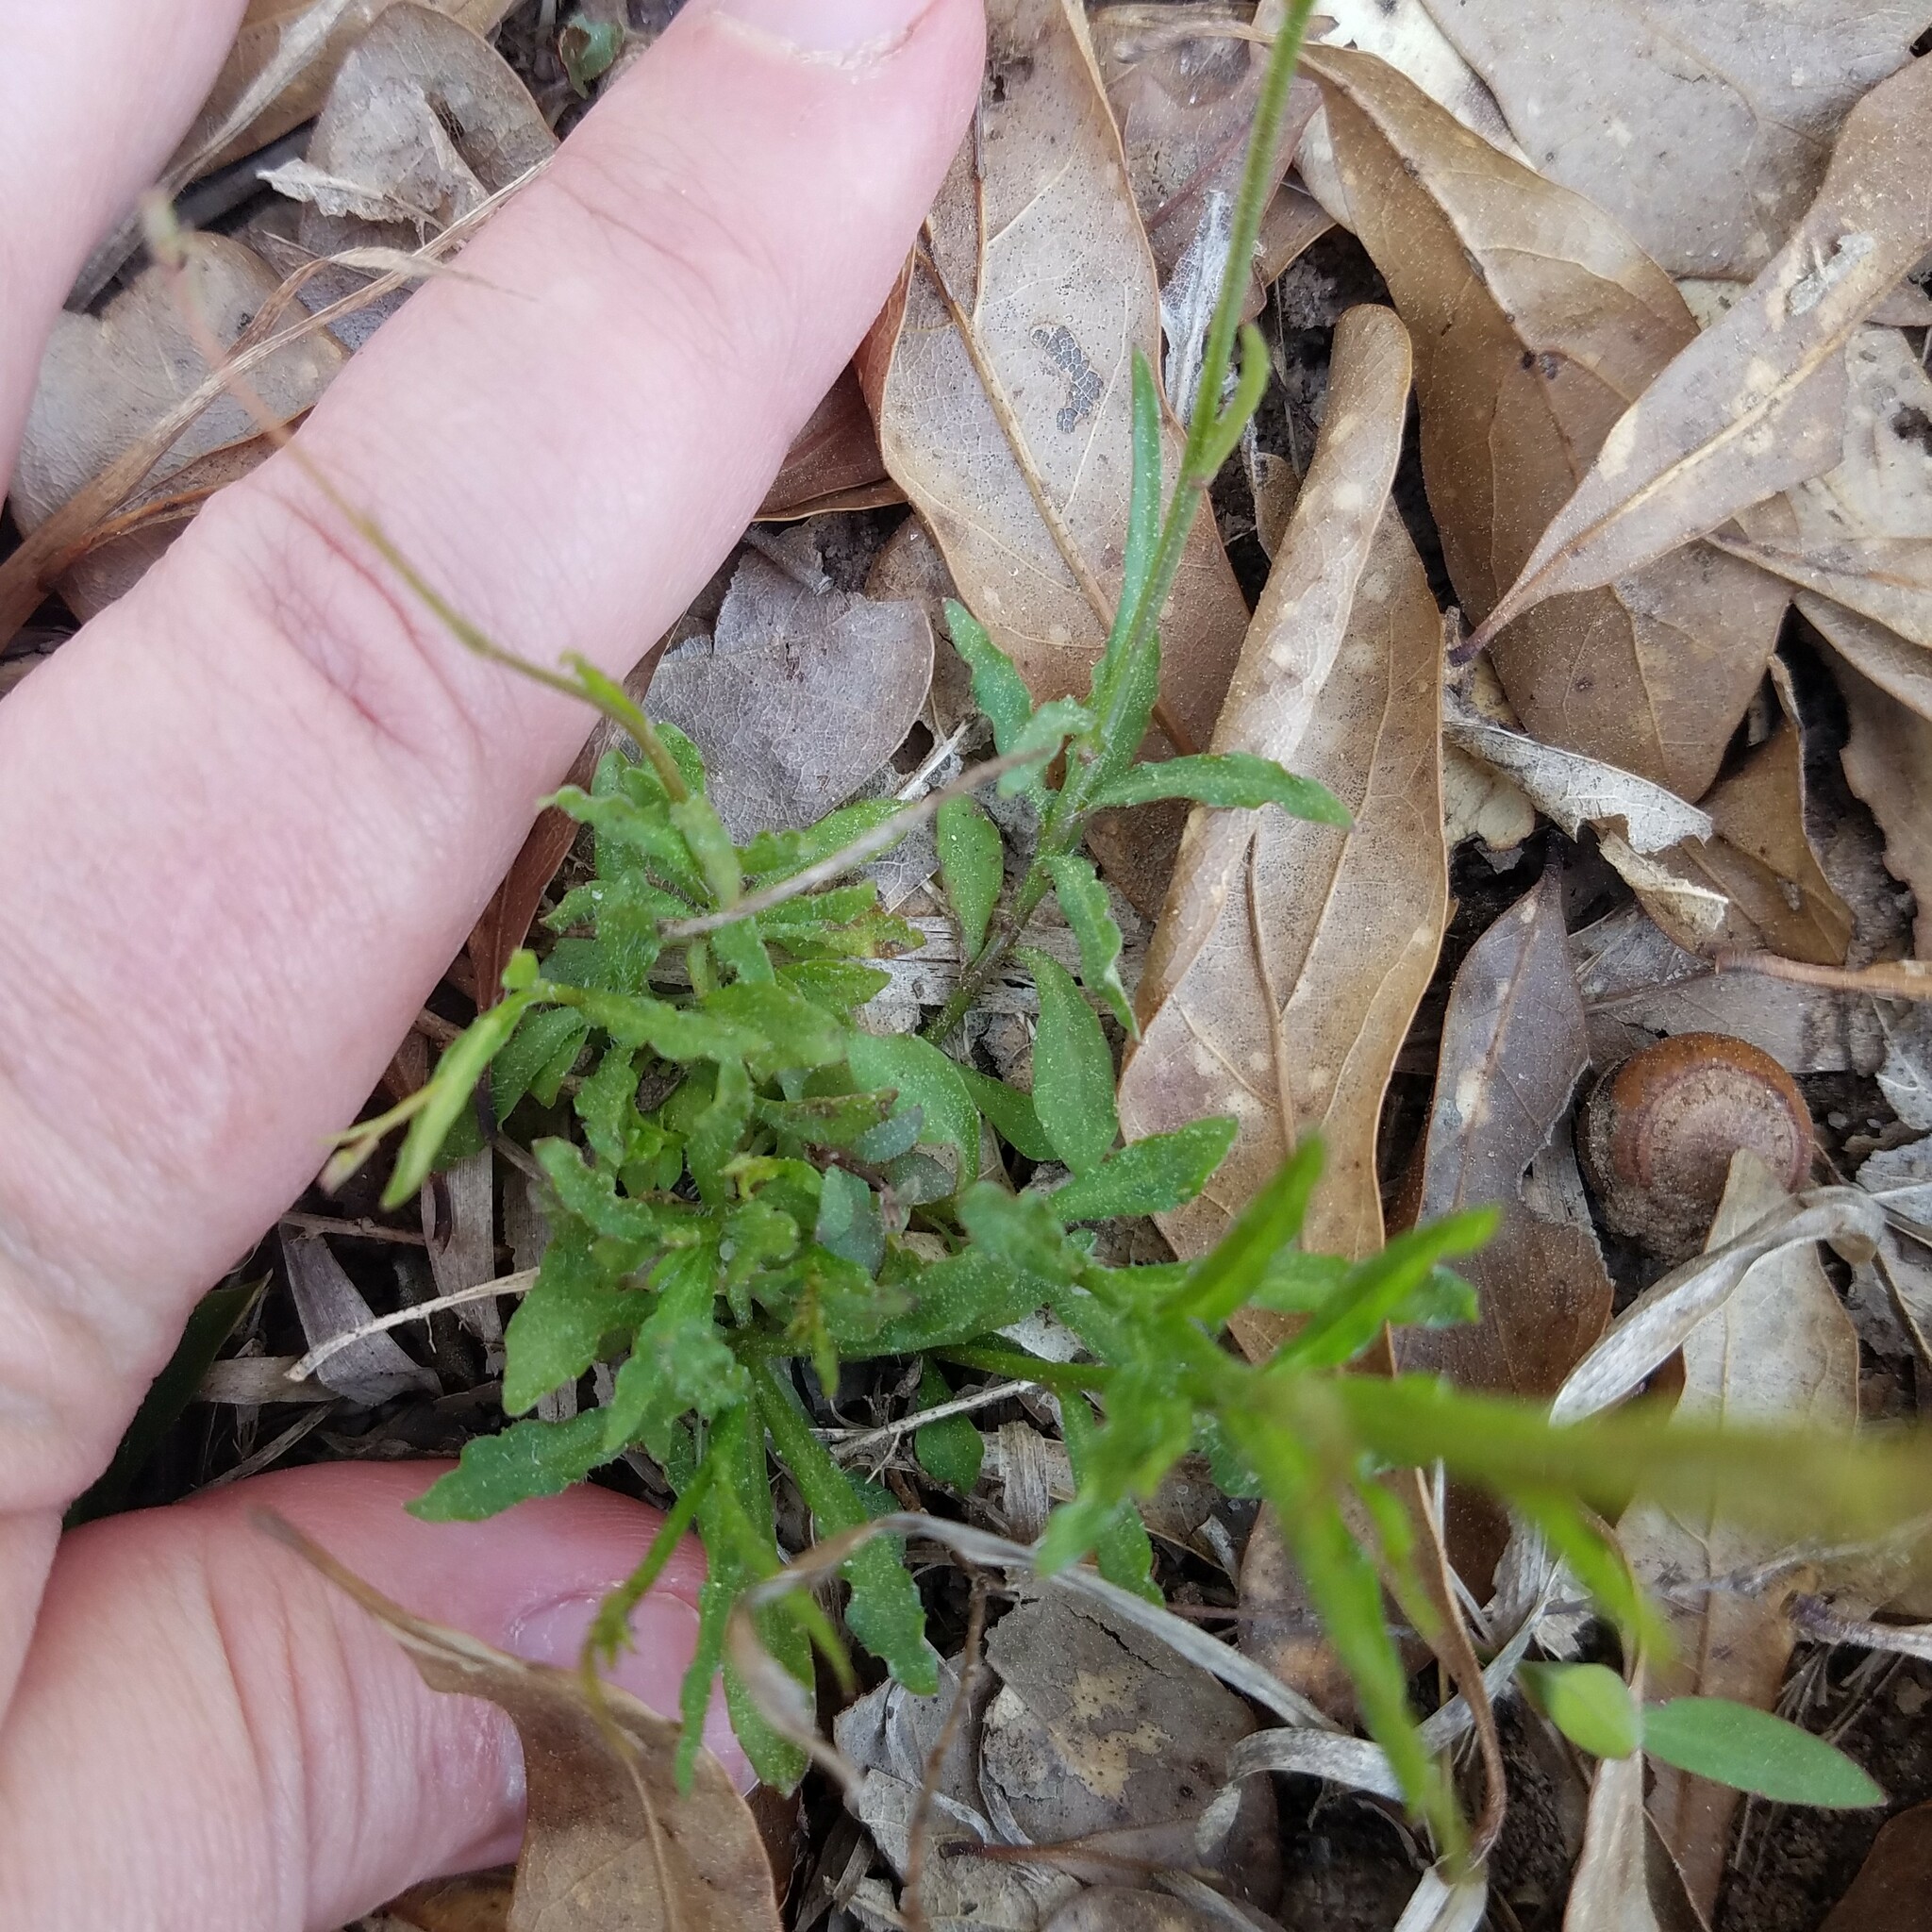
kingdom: Plantae
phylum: Tracheophyta
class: Magnoliopsida
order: Asterales
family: Campanulaceae
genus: Wahlenbergia
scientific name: Wahlenbergia marginata
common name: Southern rockbell
